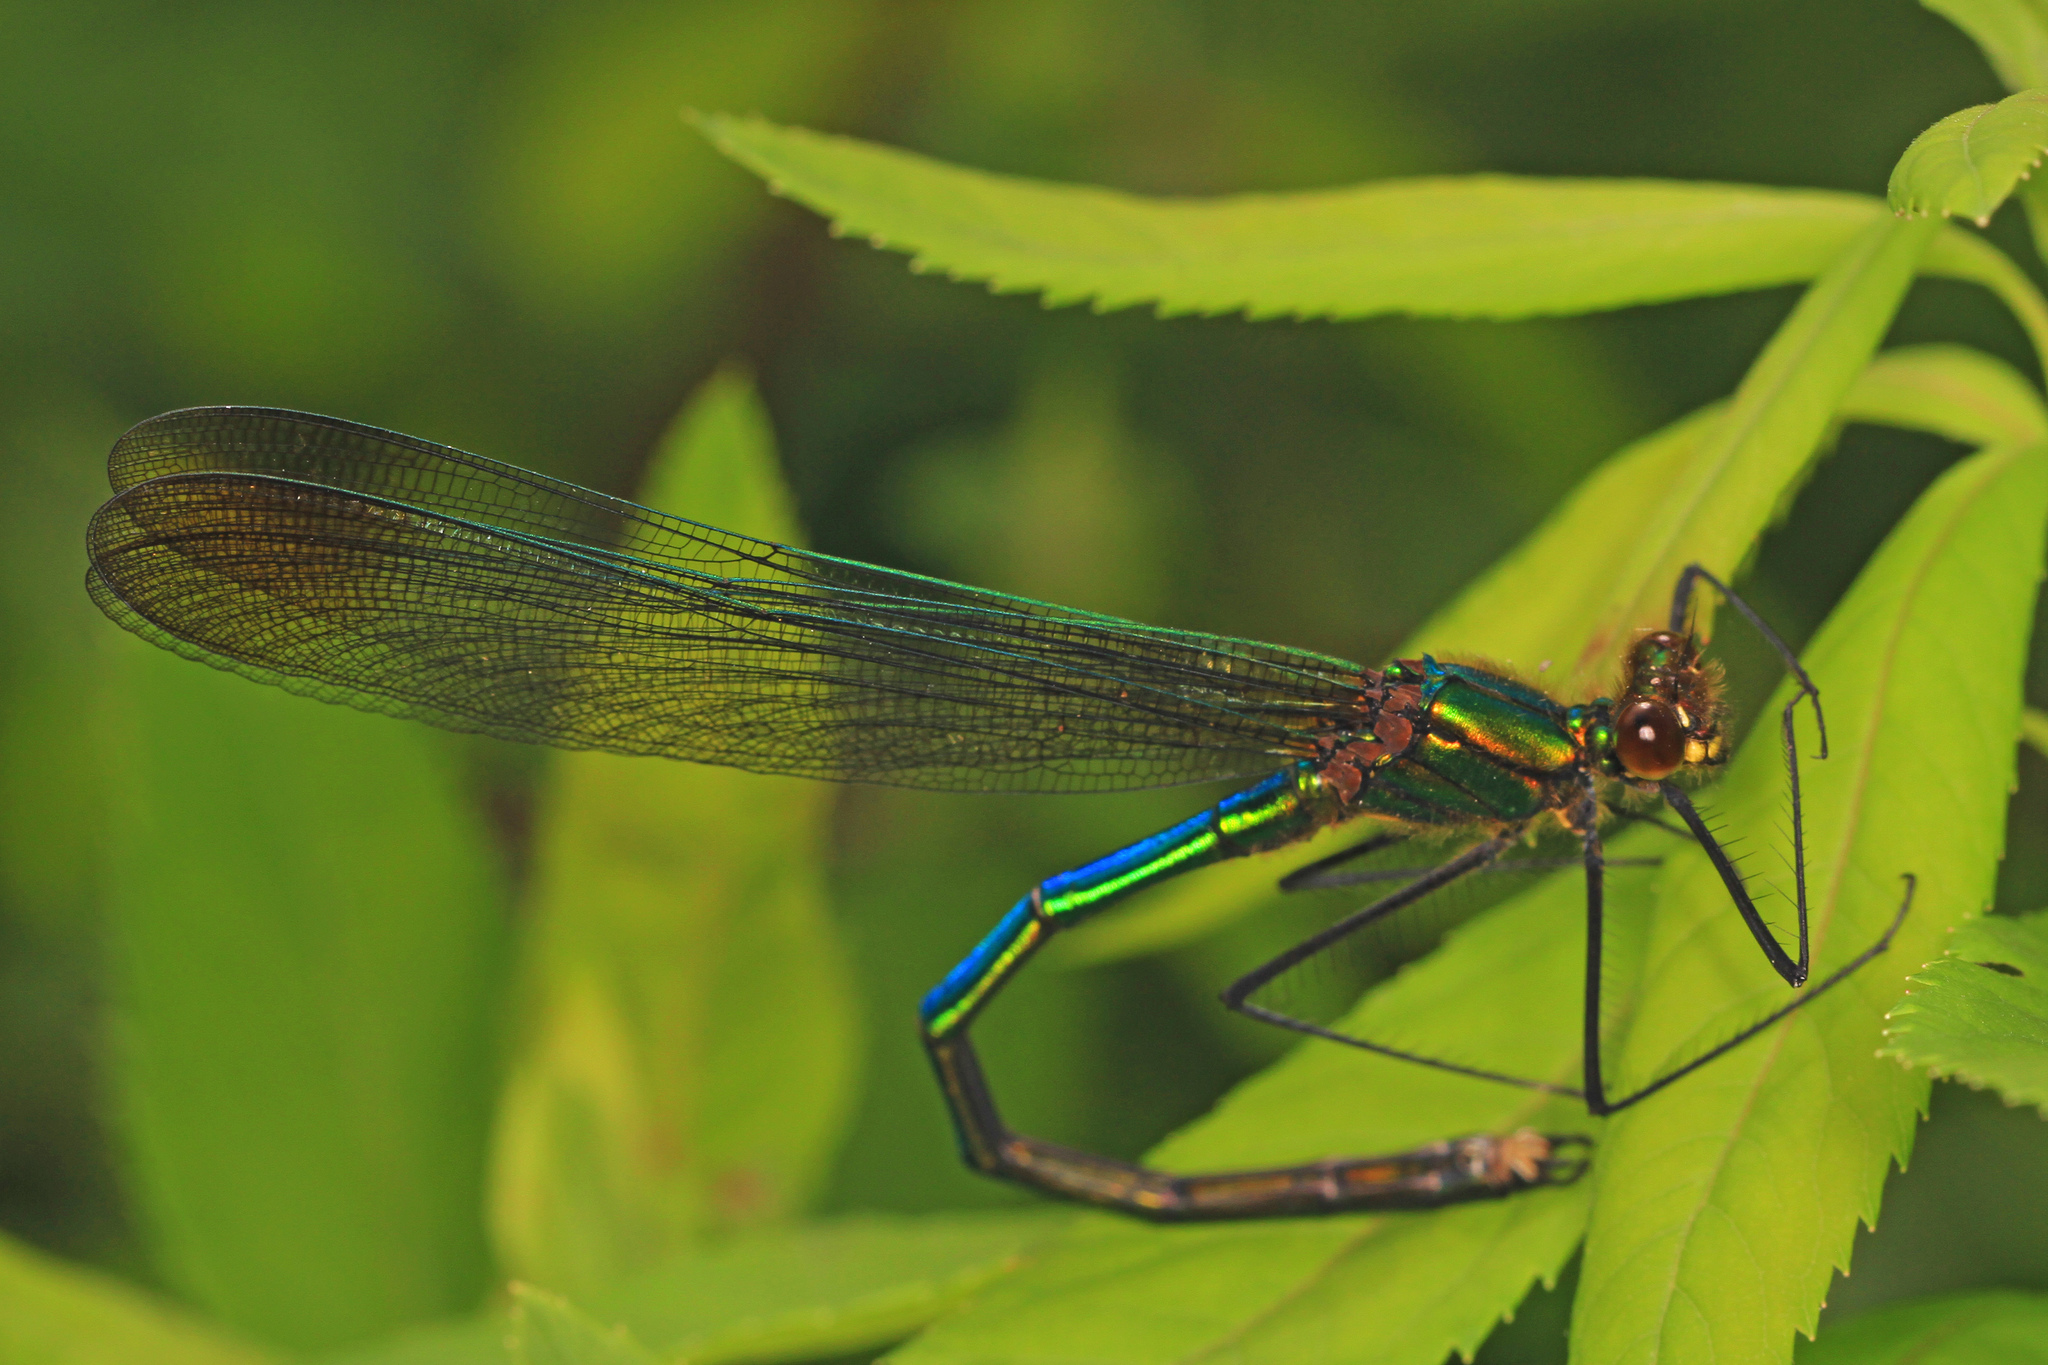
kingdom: Animalia
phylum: Arthropoda
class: Insecta
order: Odonata
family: Calopterygidae
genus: Calopteryx
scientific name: Calopteryx amata
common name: Superb jewelwing
